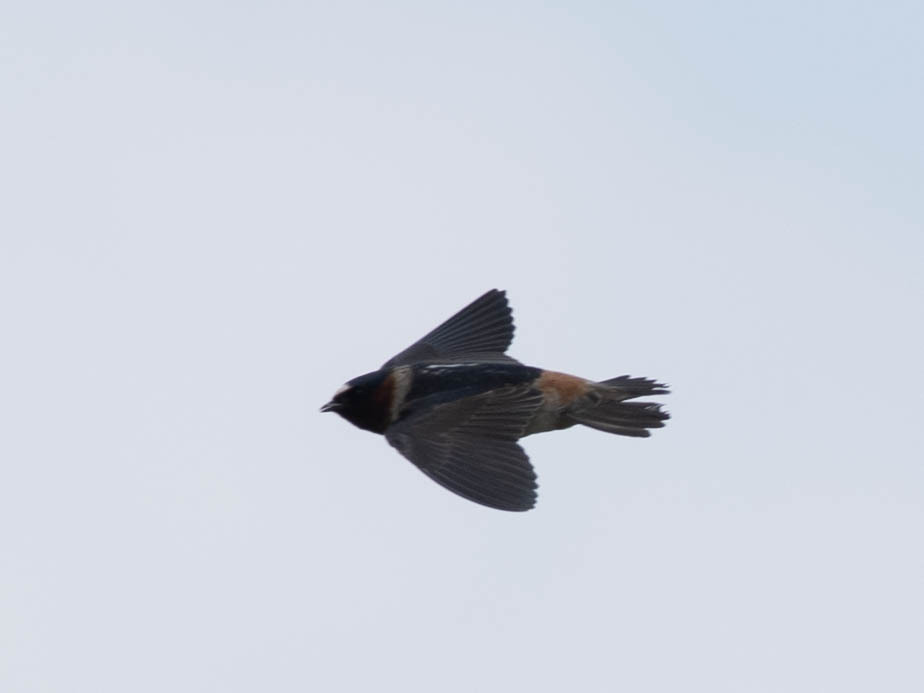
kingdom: Animalia
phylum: Chordata
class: Aves
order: Passeriformes
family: Hirundinidae
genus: Petrochelidon
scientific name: Petrochelidon pyrrhonota
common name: American cliff swallow
